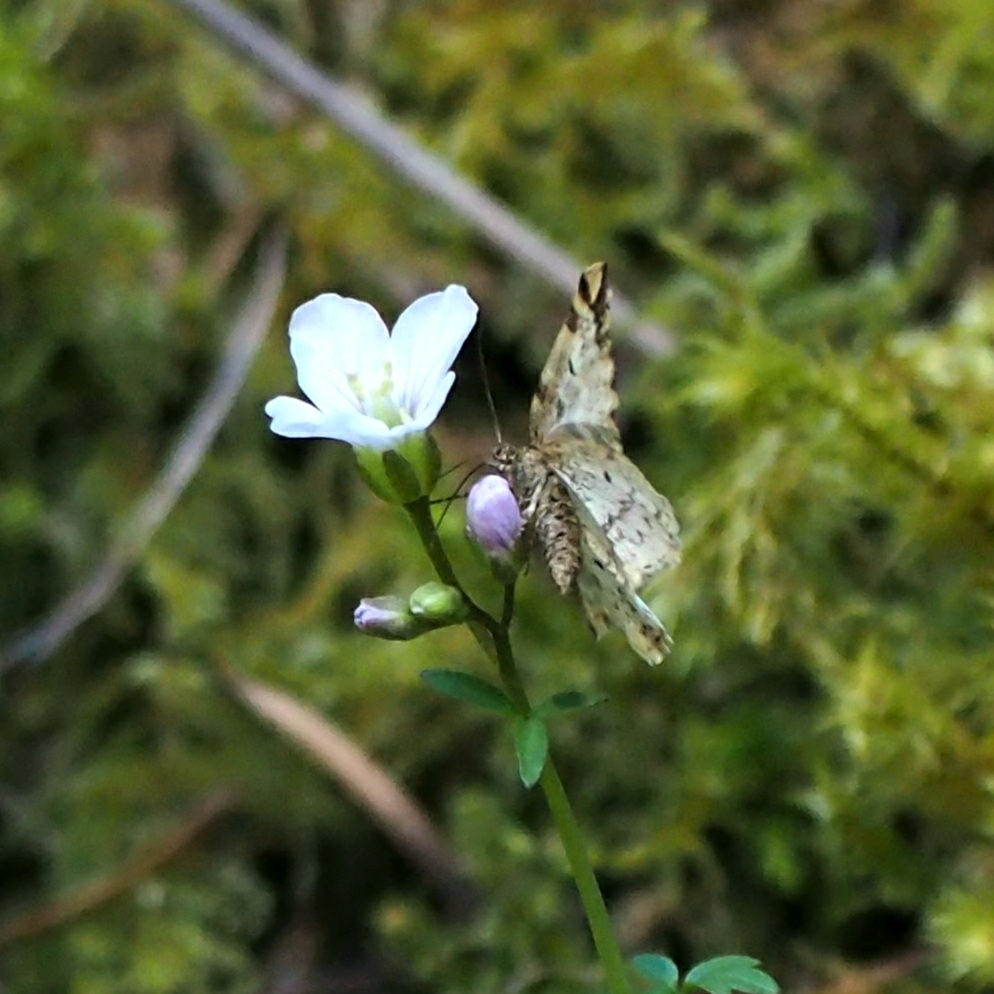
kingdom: Animalia
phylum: Arthropoda
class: Insecta
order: Lepidoptera
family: Geometridae
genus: Enchoria
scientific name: Enchoria lacteata
